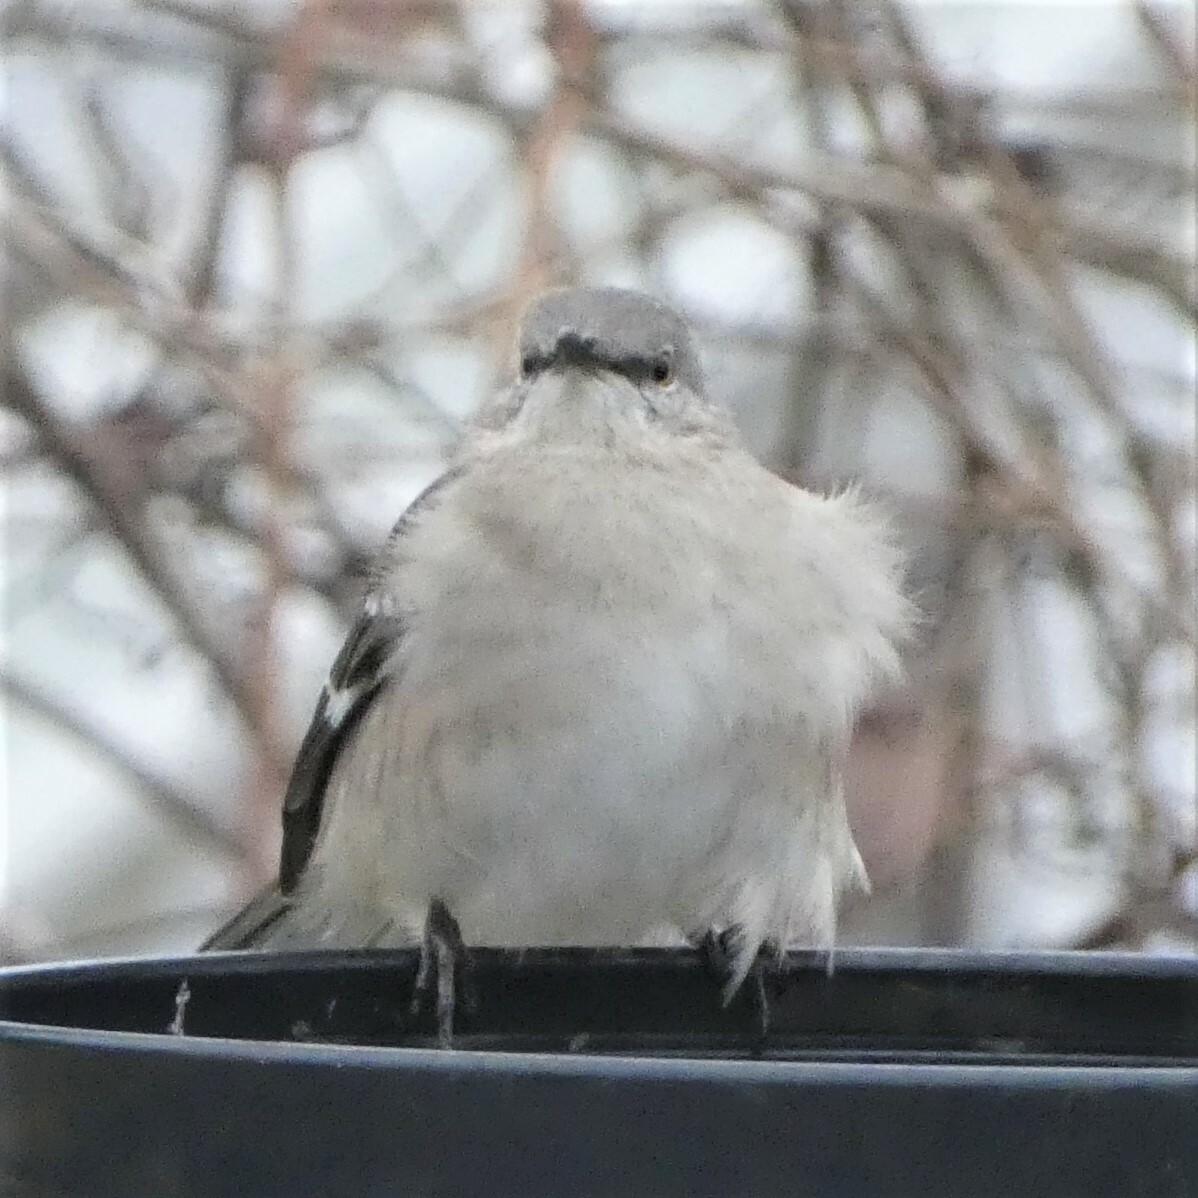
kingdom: Animalia
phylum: Chordata
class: Aves
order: Passeriformes
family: Mimidae
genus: Mimus
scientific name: Mimus polyglottos
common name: Northern mockingbird
